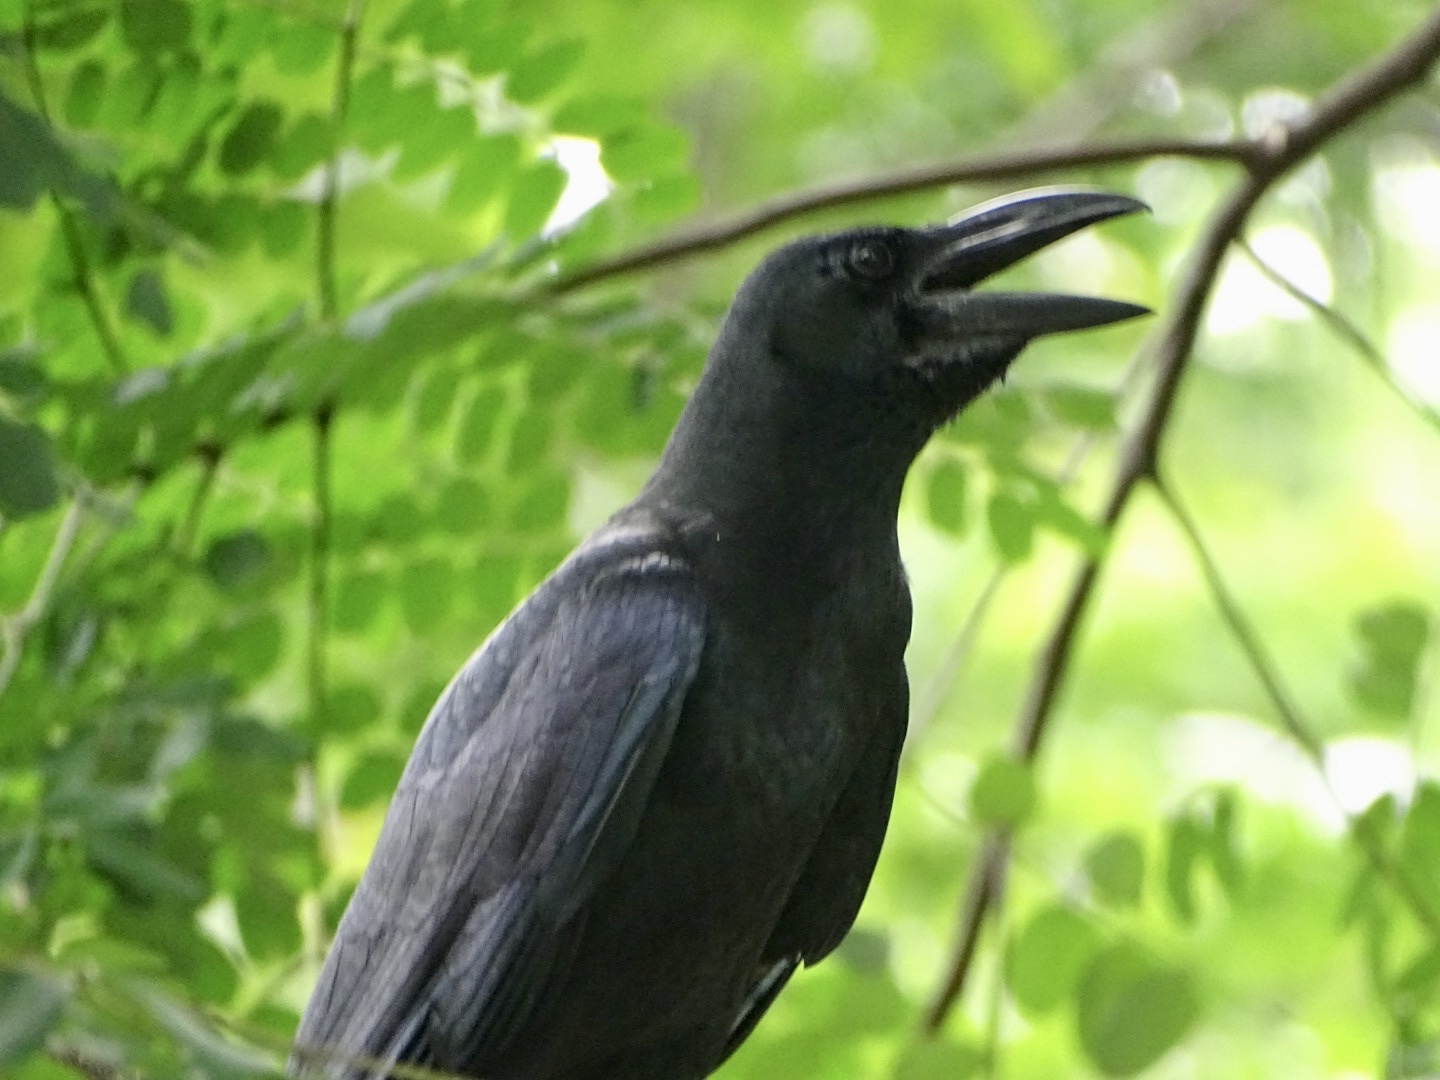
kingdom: Animalia
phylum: Chordata
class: Aves
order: Passeriformes
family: Corvidae
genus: Corvus
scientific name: Corvus macrorhynchos
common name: Large-billed crow
